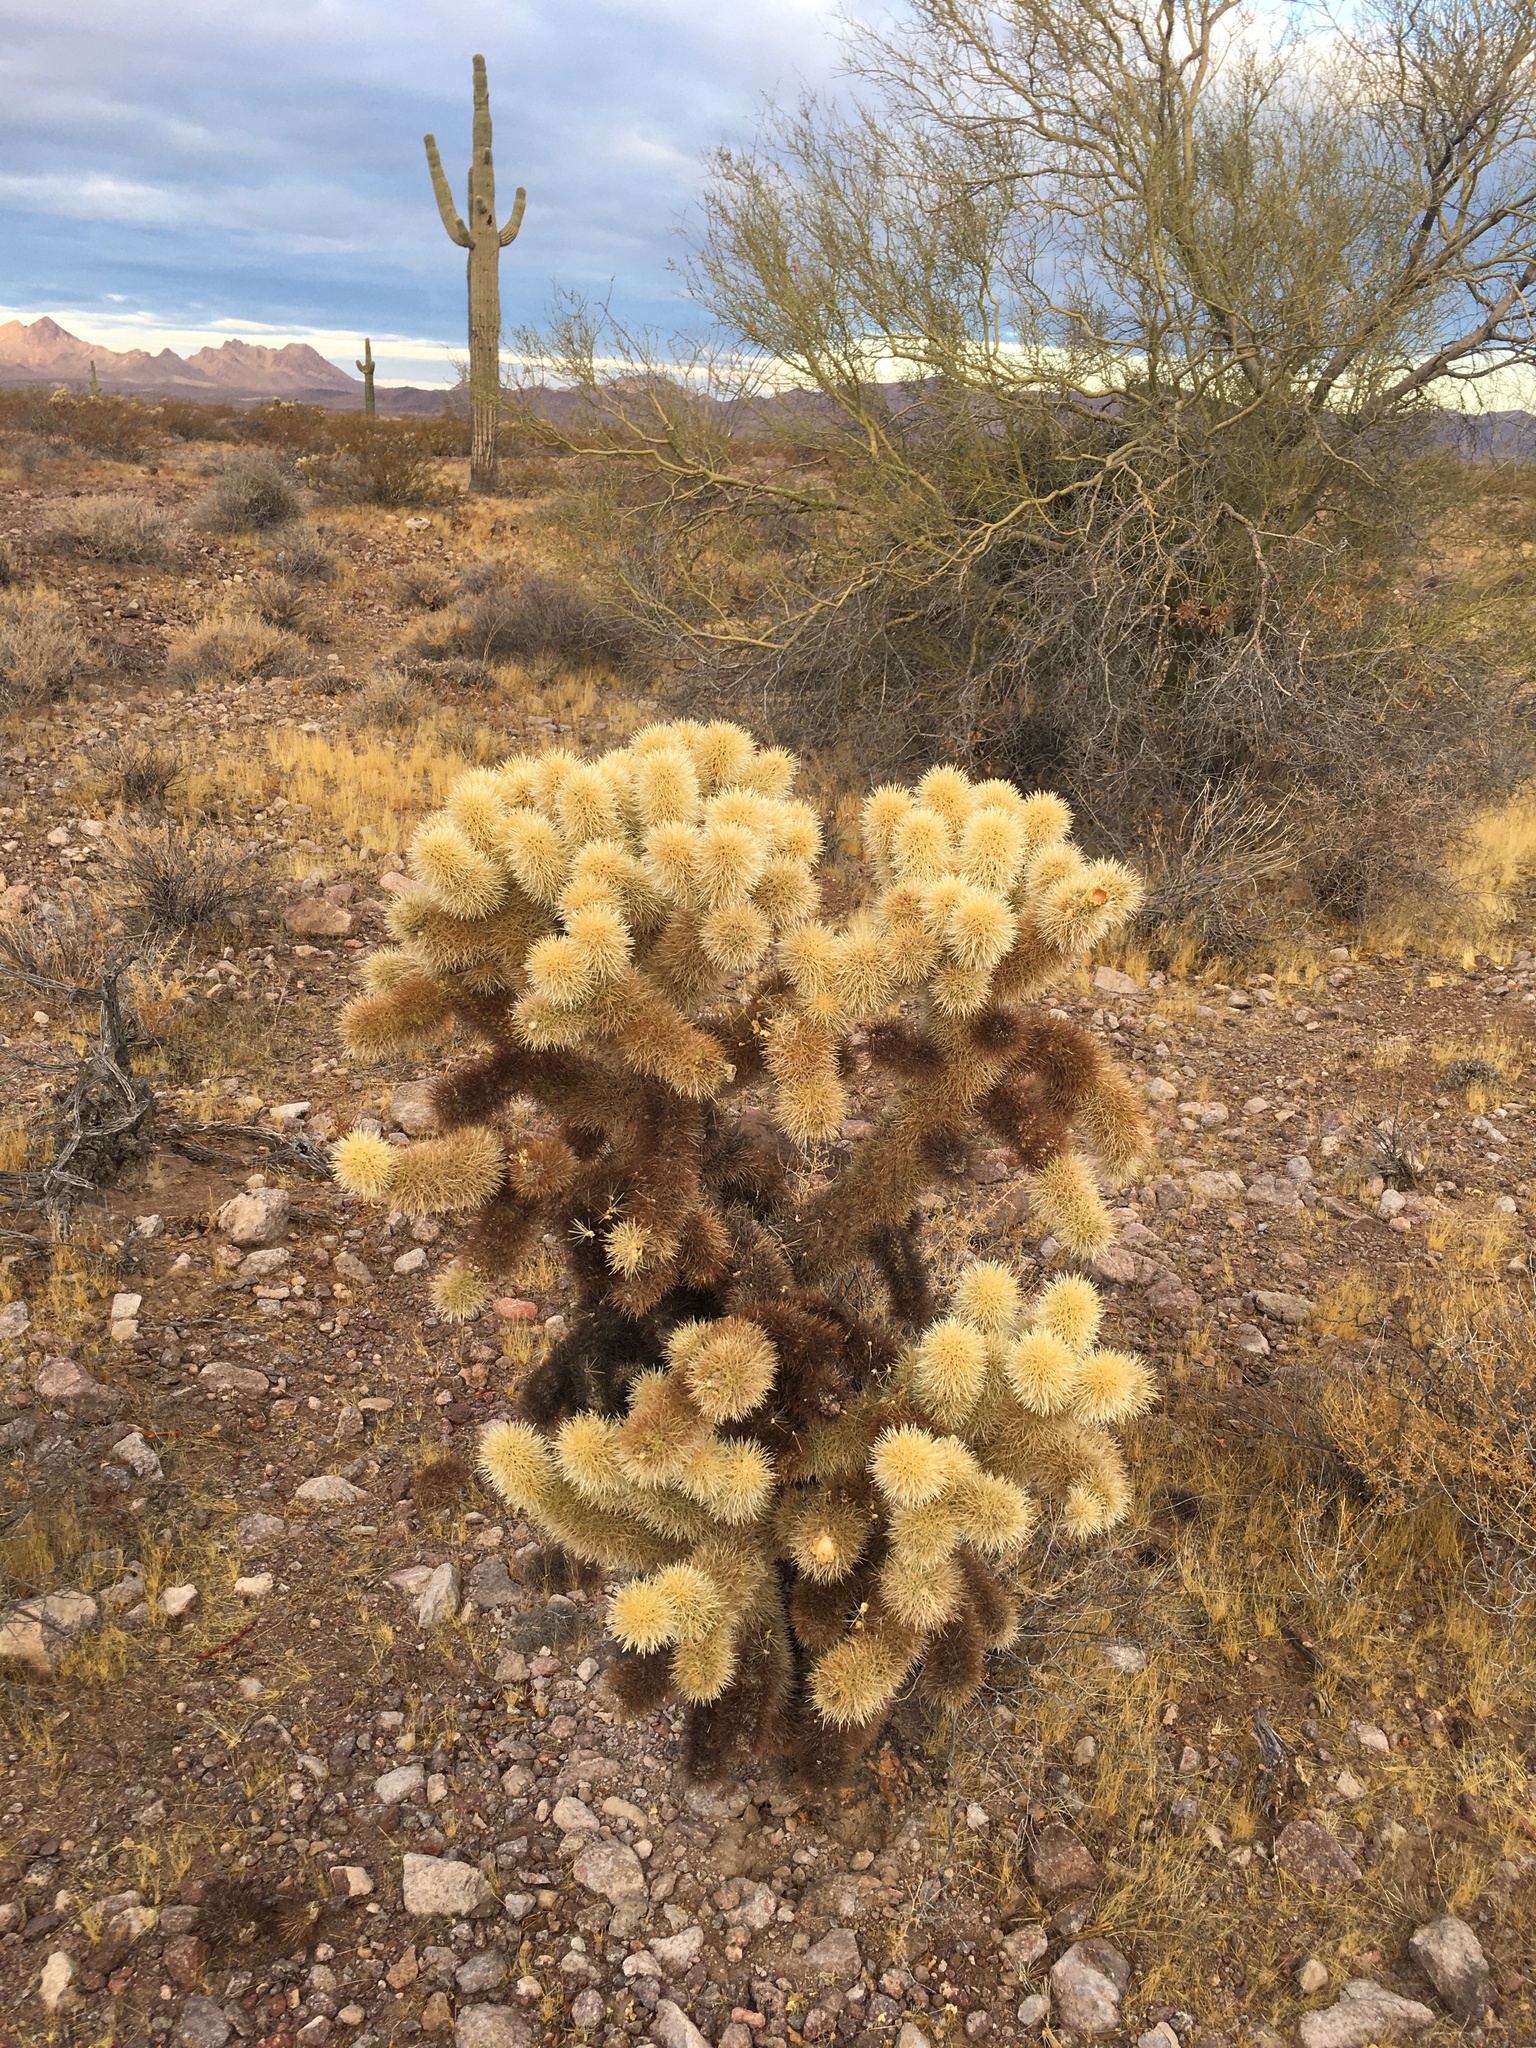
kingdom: Plantae
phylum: Tracheophyta
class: Magnoliopsida
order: Caryophyllales
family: Cactaceae
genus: Cylindropuntia
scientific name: Cylindropuntia fosbergii
